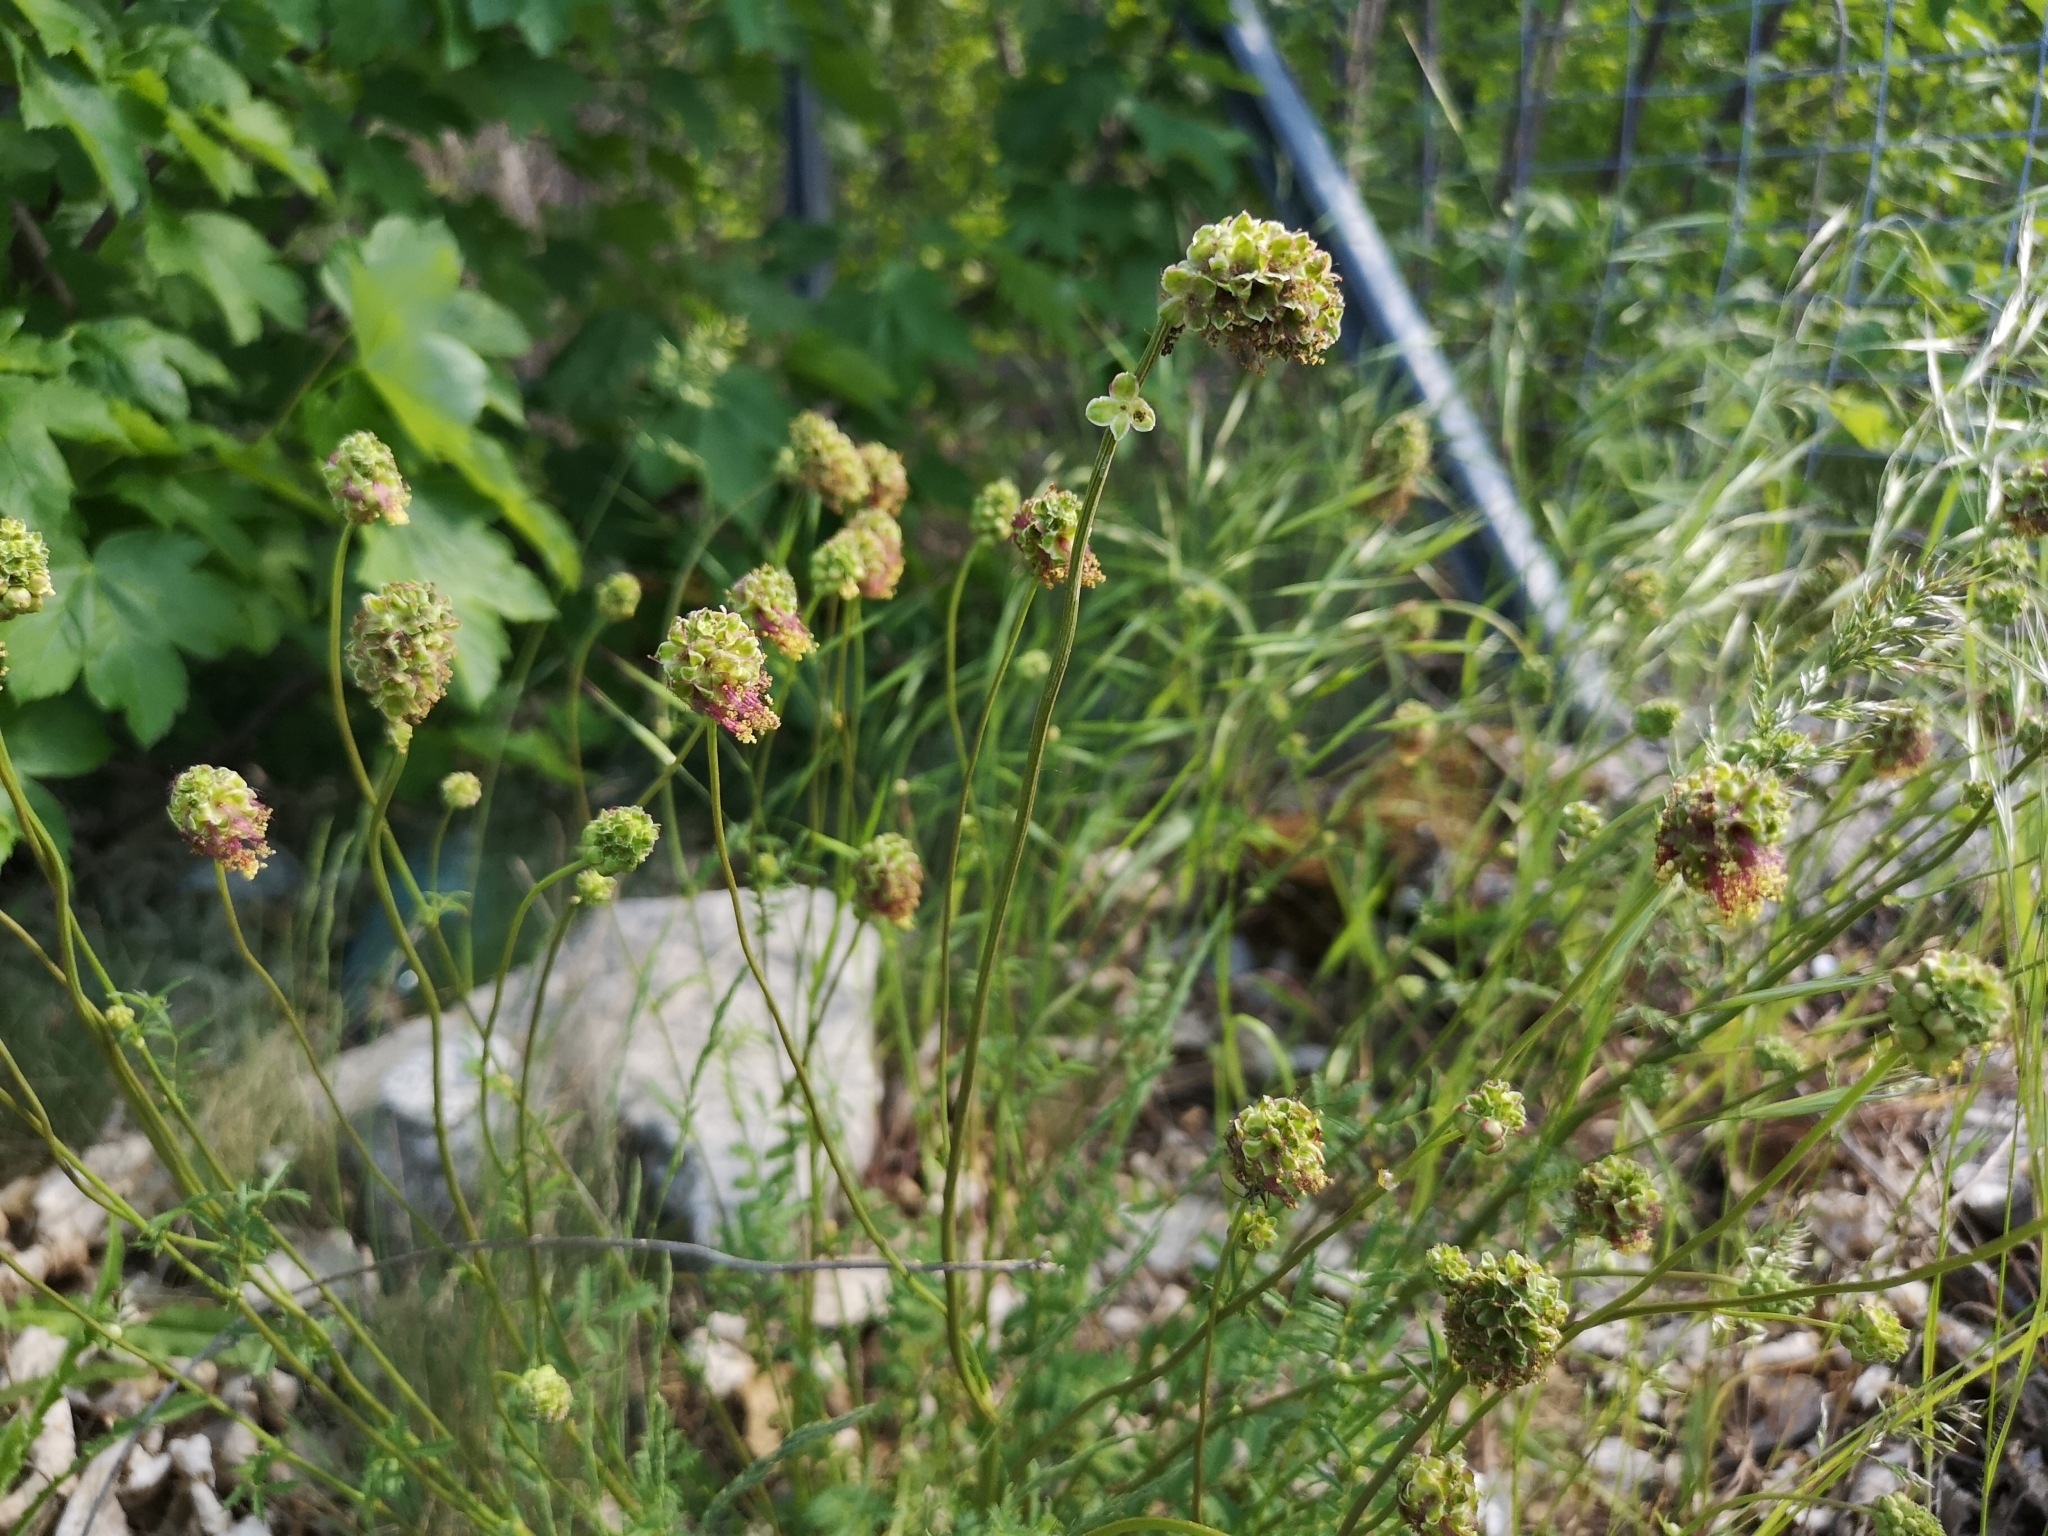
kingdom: Plantae
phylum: Tracheophyta
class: Magnoliopsida
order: Rosales
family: Rosaceae
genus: Poterium
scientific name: Poterium sanguisorba
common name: Salad burnet
